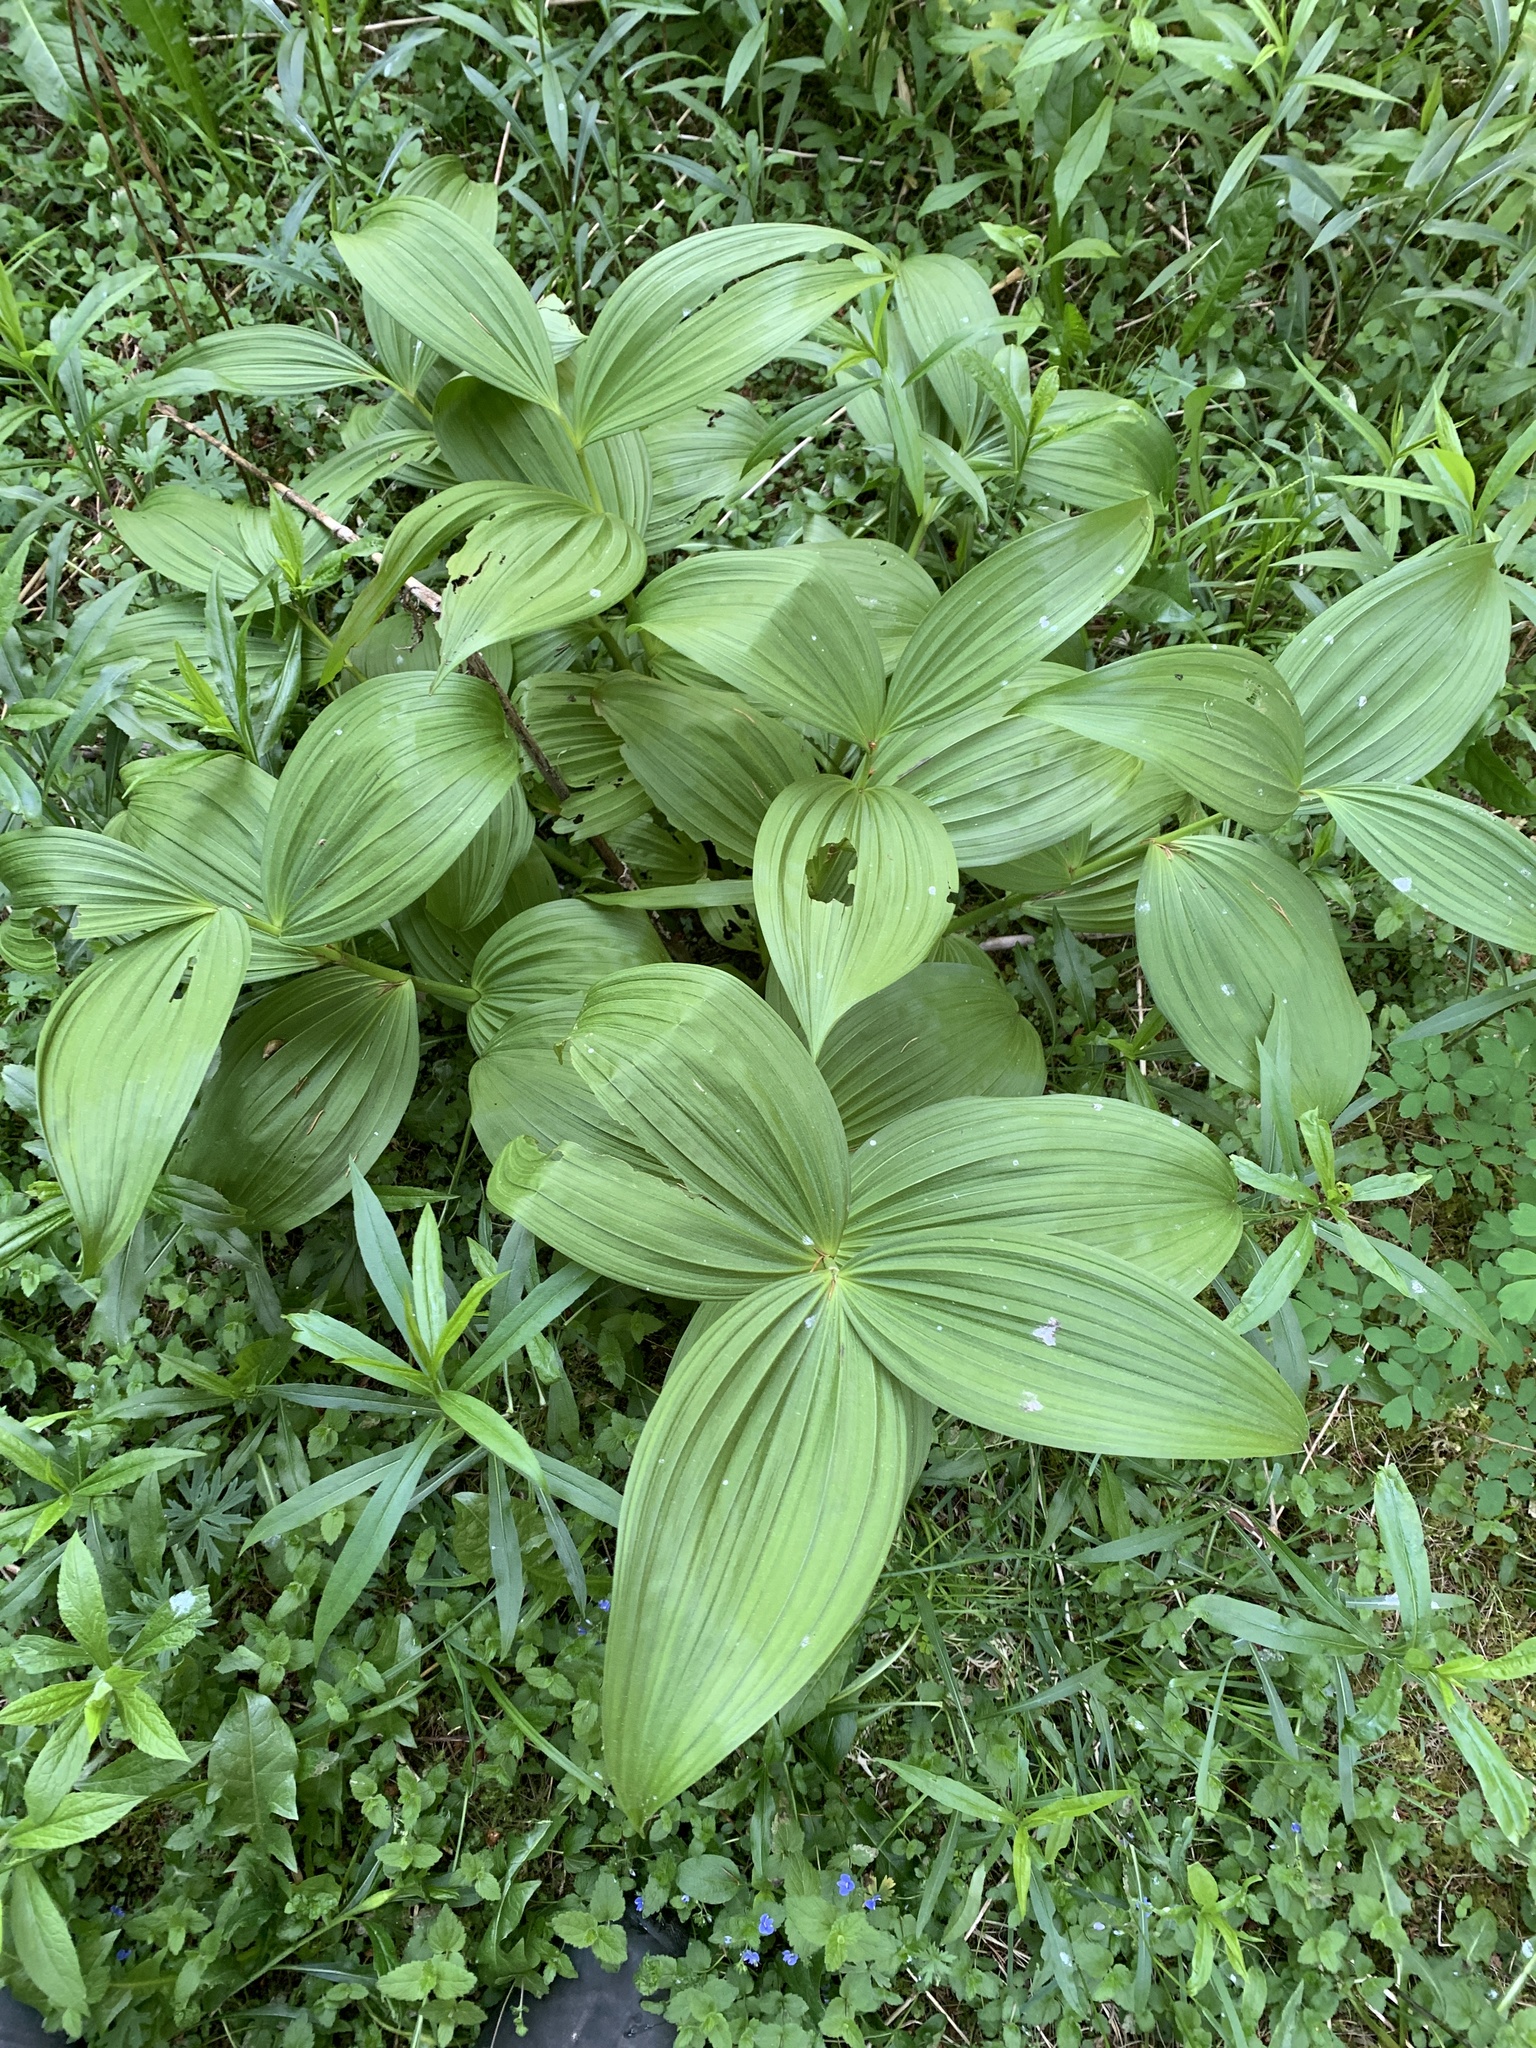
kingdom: Plantae
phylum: Tracheophyta
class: Liliopsida
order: Liliales
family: Melanthiaceae
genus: Veratrum
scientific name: Veratrum viride
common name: American false hellebore
